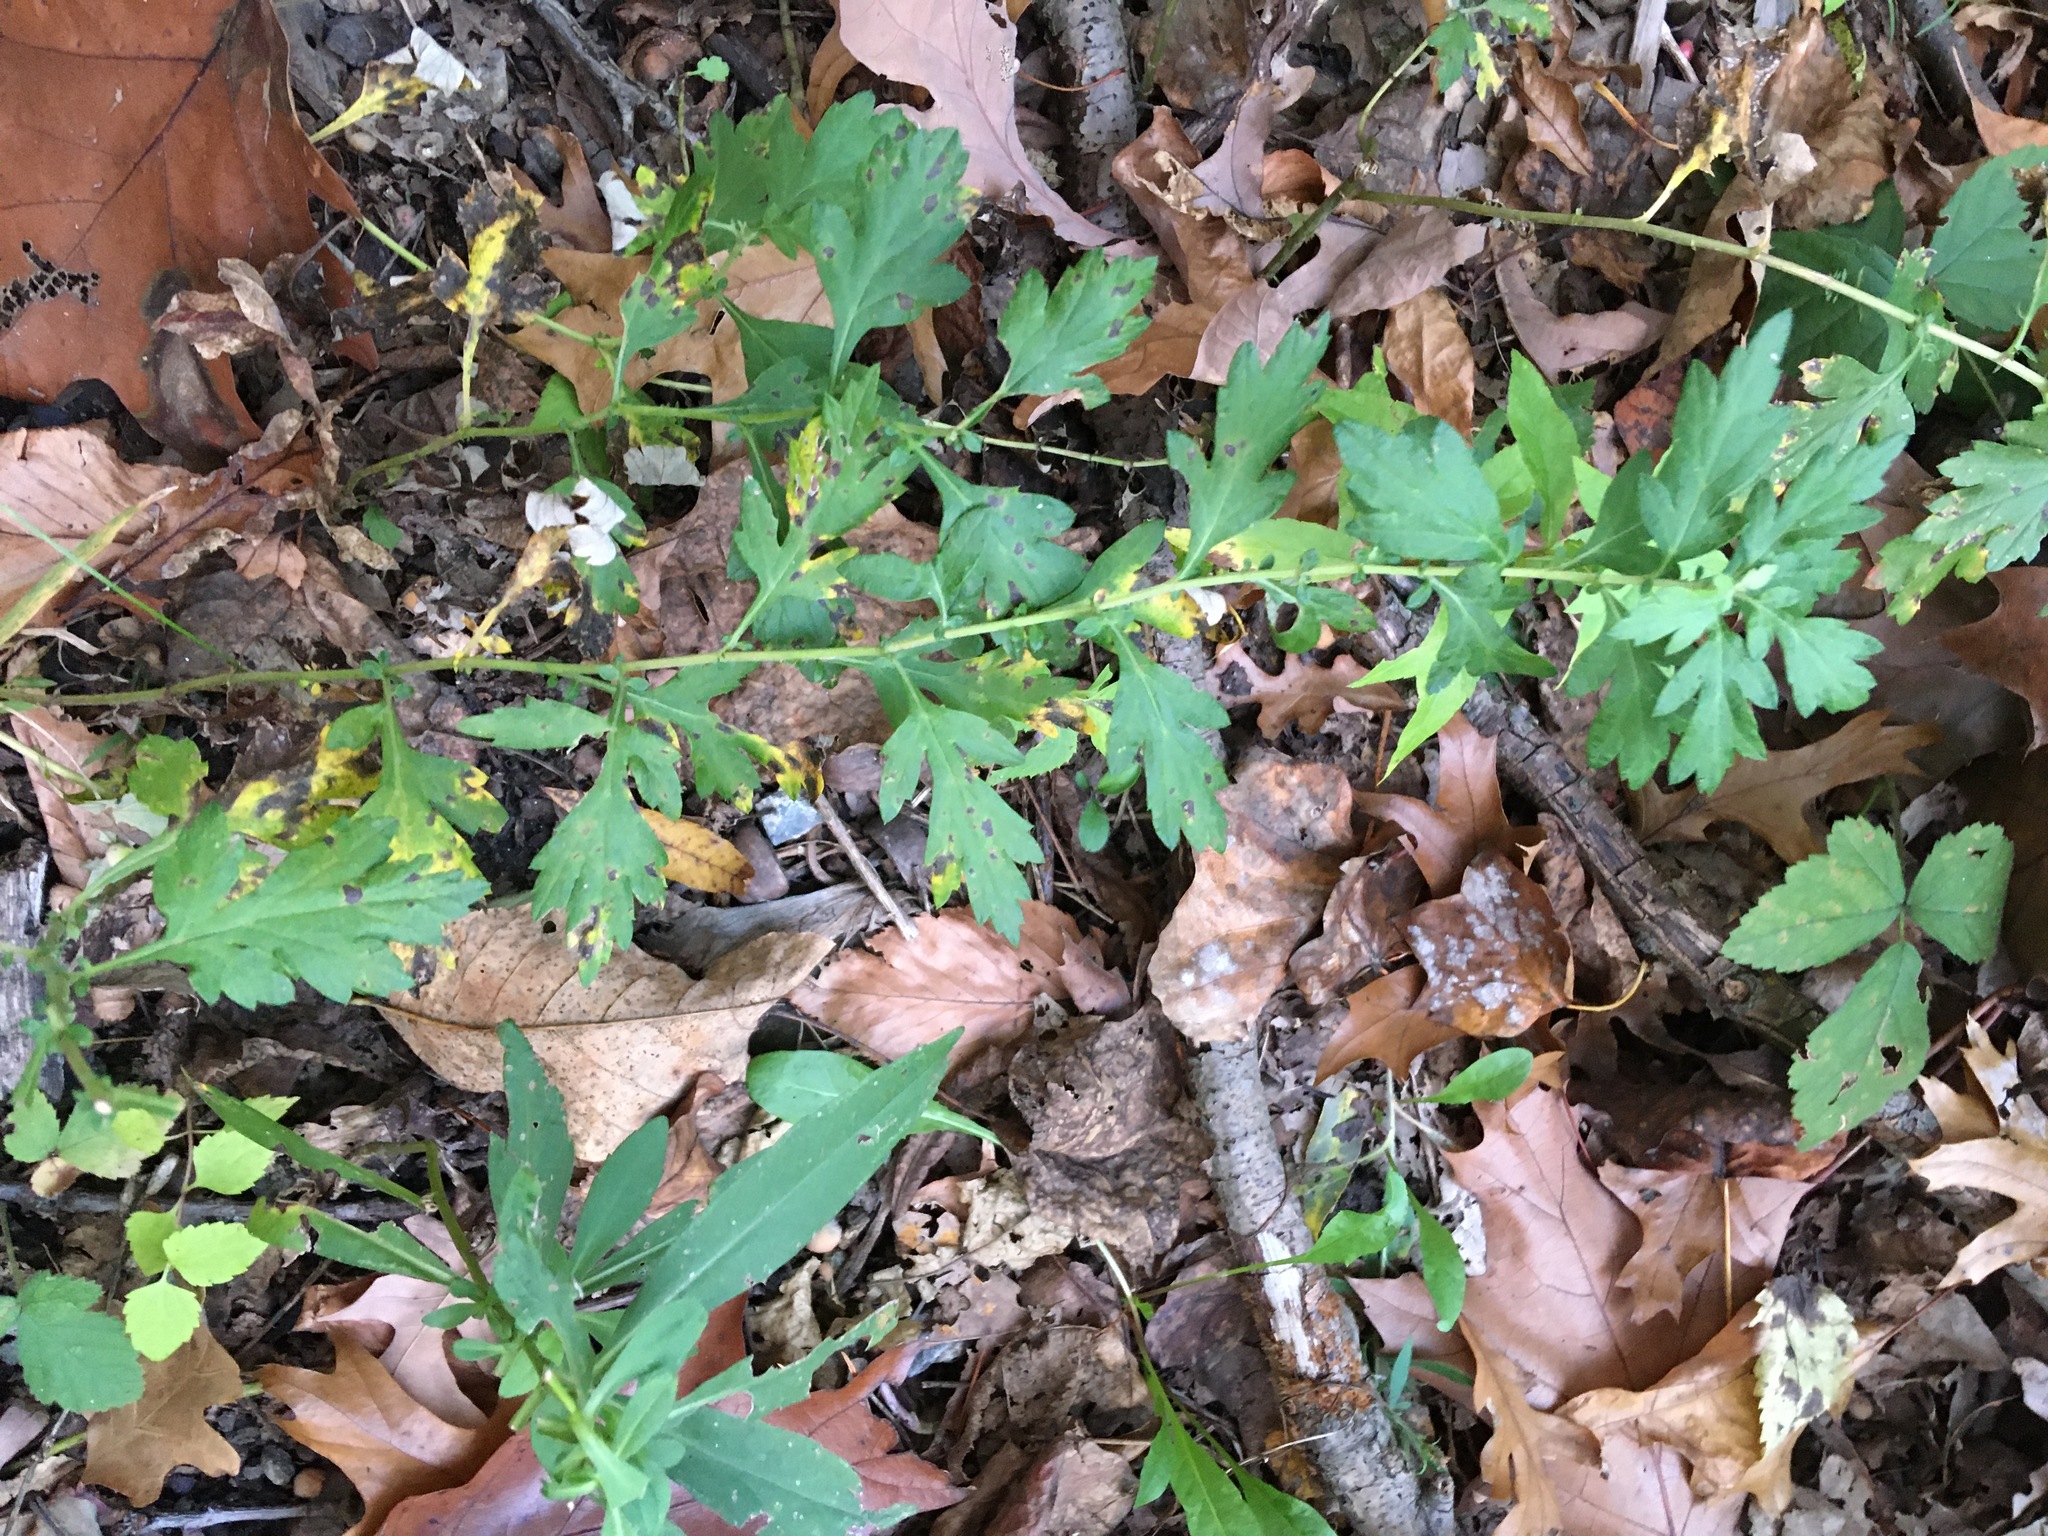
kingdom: Plantae
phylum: Tracheophyta
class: Magnoliopsida
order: Asterales
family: Asteraceae
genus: Artemisia
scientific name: Artemisia vulgaris
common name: Mugwort
